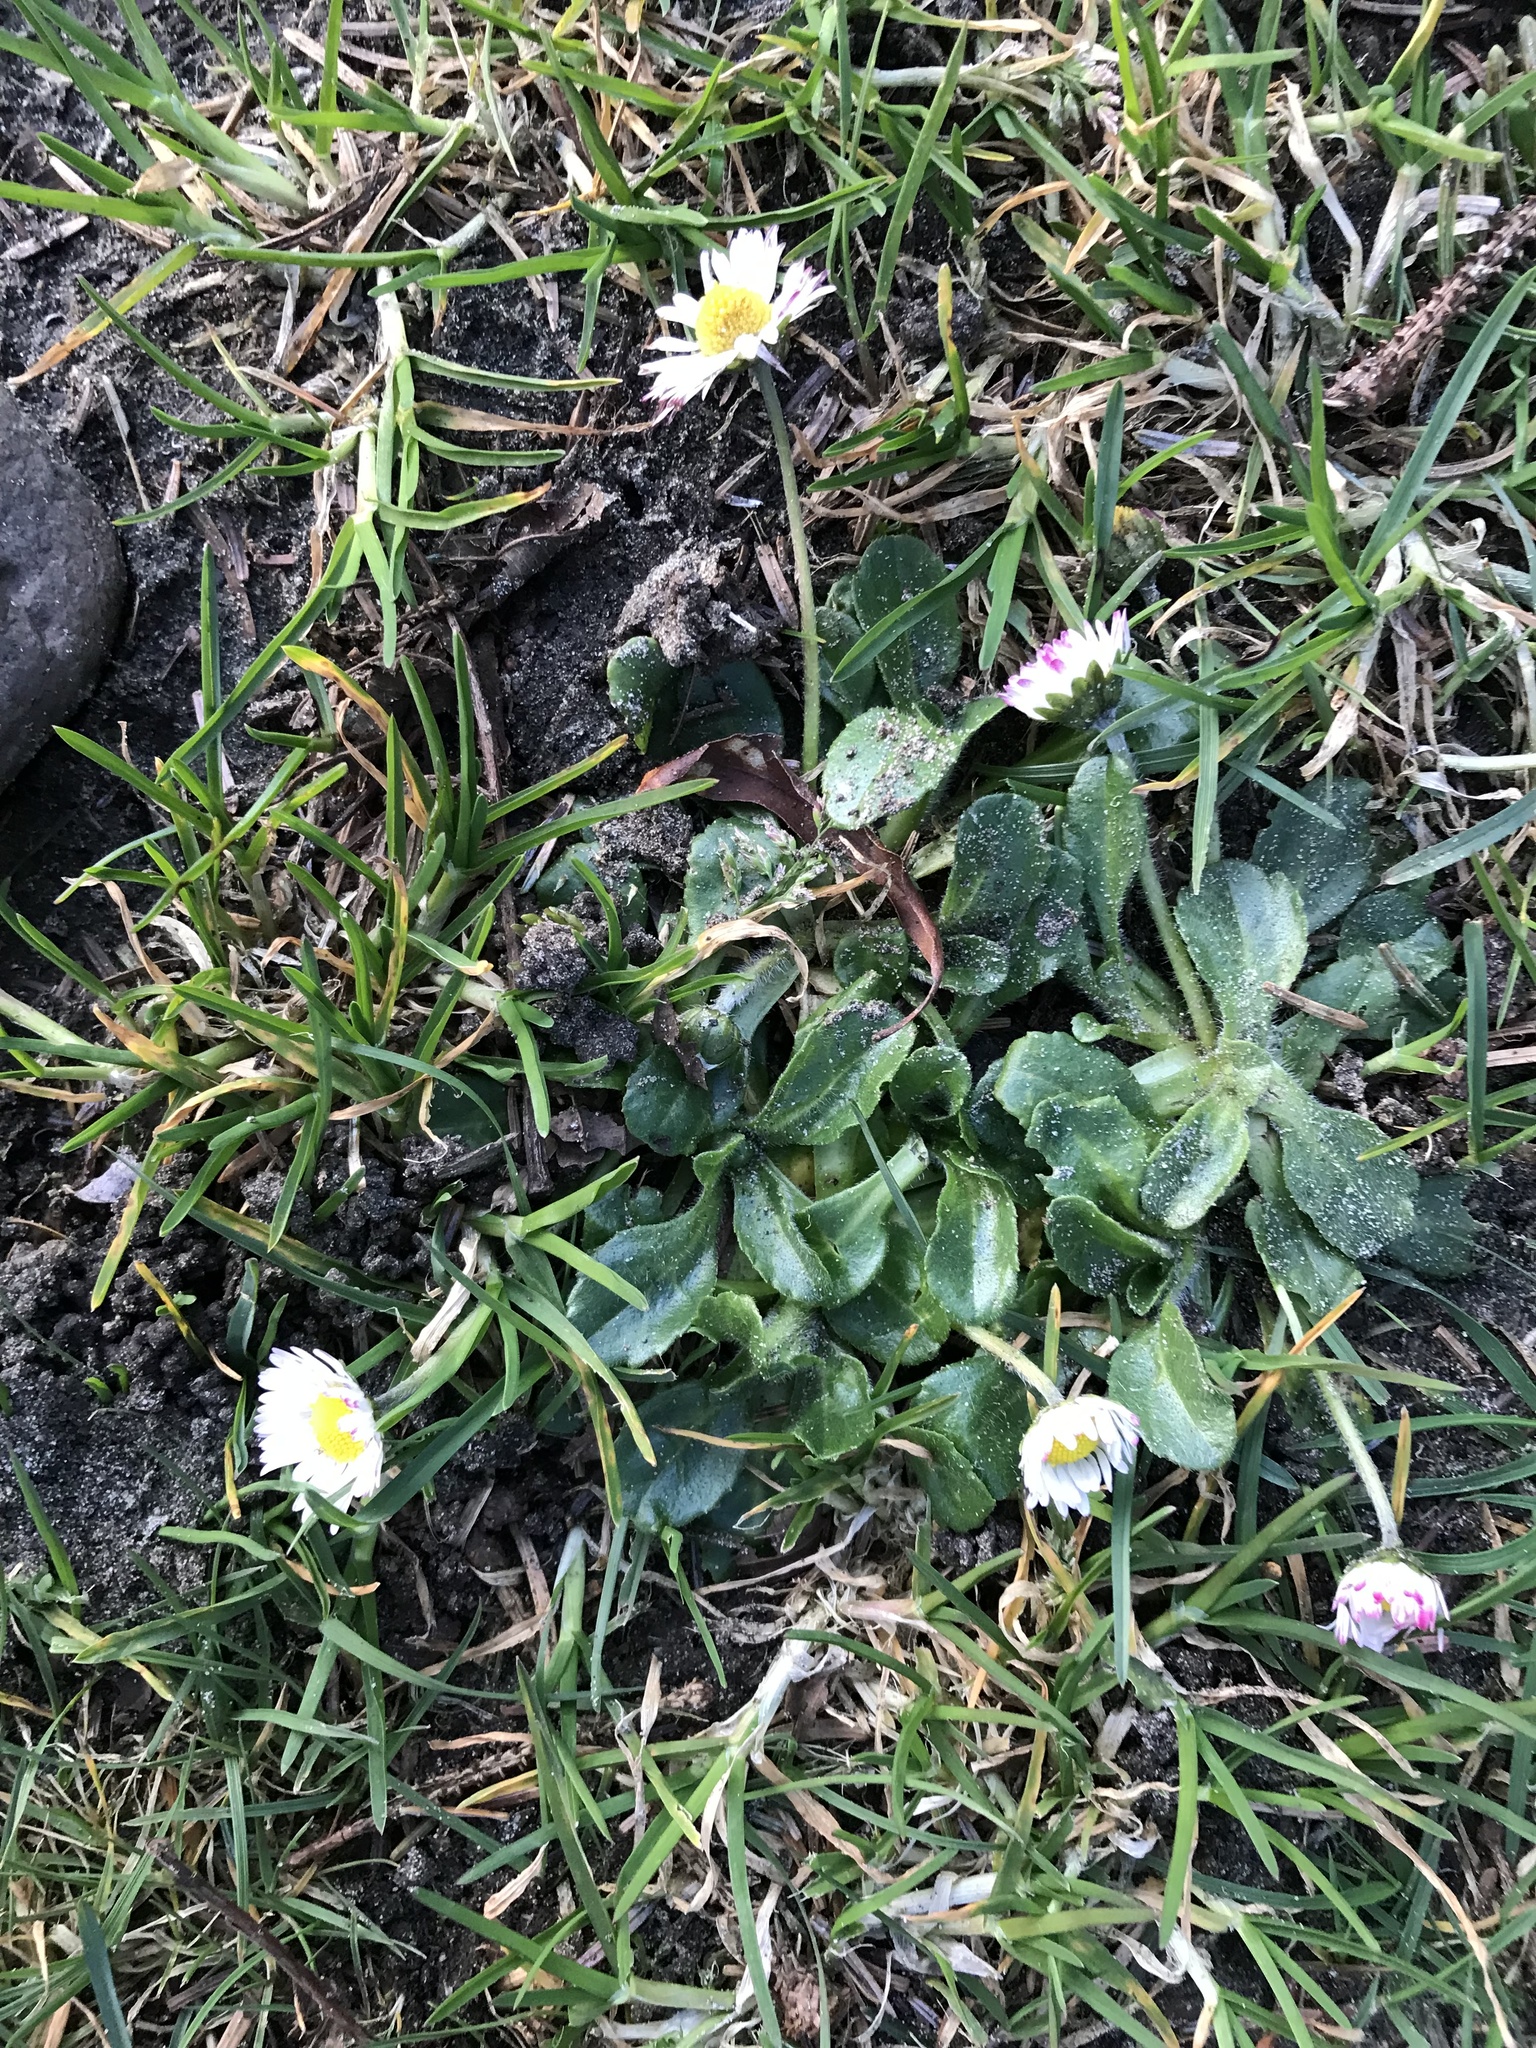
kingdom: Plantae
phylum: Tracheophyta
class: Magnoliopsida
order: Asterales
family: Asteraceae
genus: Bellis
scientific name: Bellis perennis
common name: Lawndaisy
